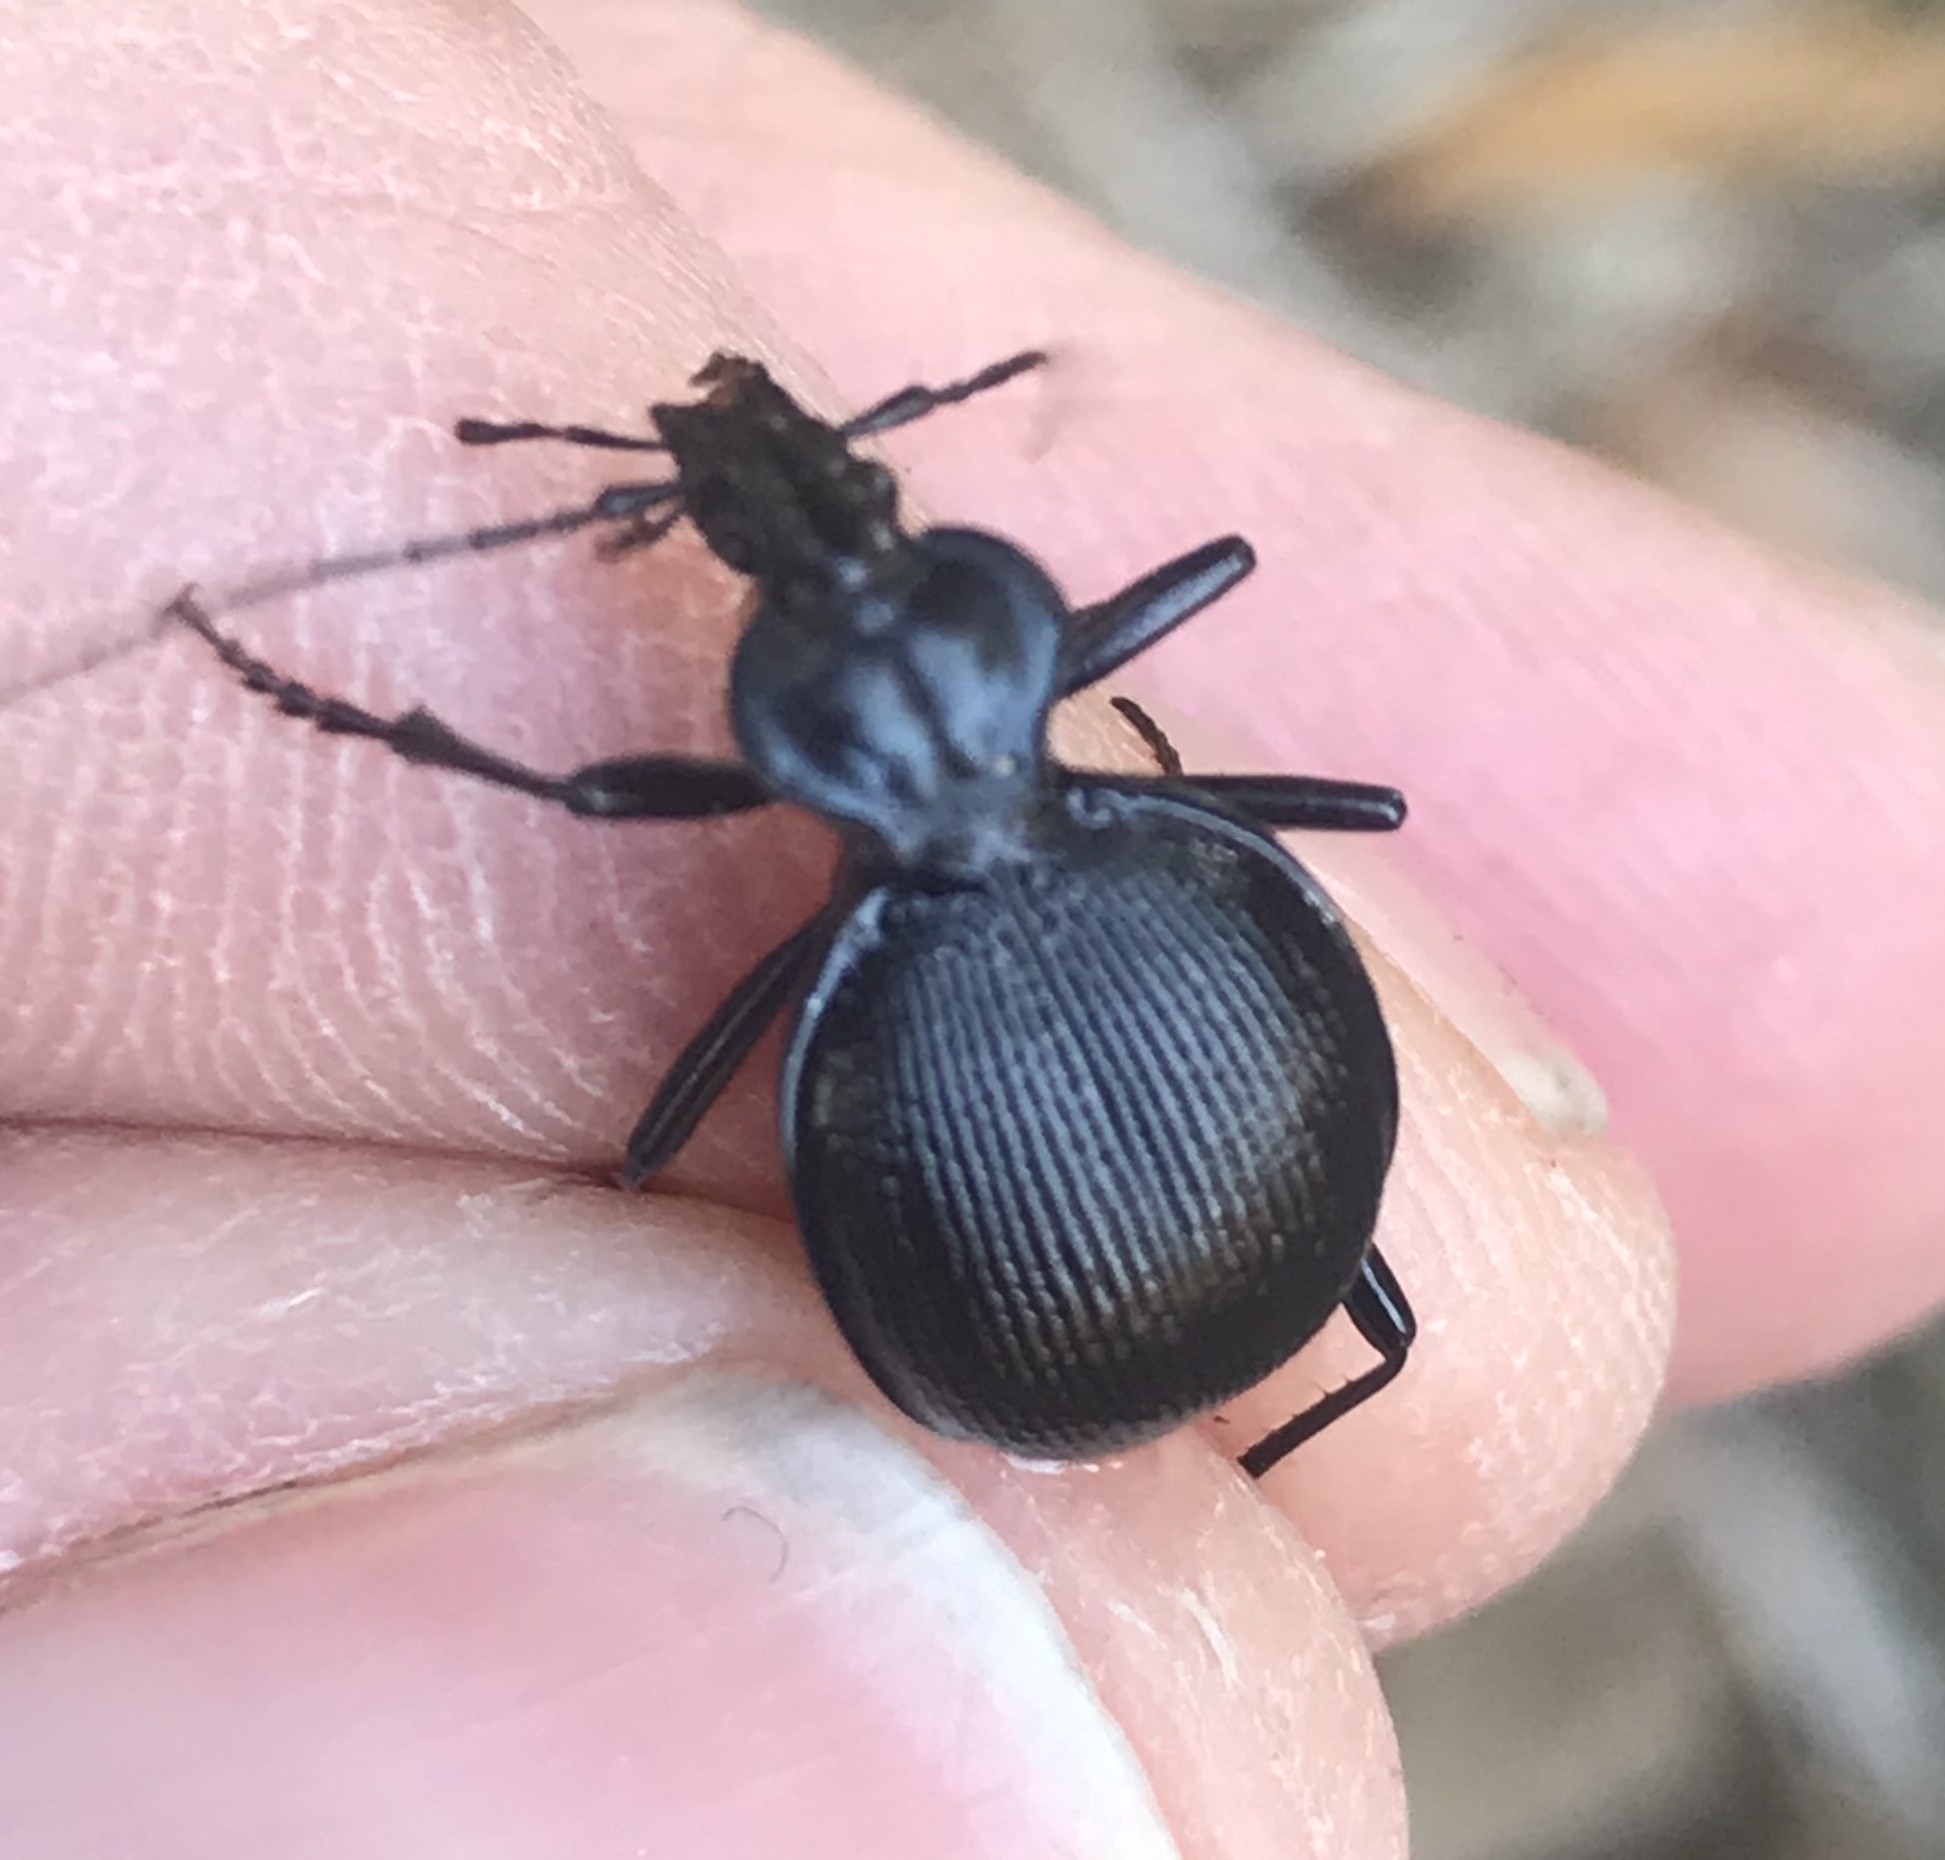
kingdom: Animalia
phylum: Arthropoda
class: Insecta
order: Coleoptera
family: Carabidae
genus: Scaphinotus
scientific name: Scaphinotus interruptus
